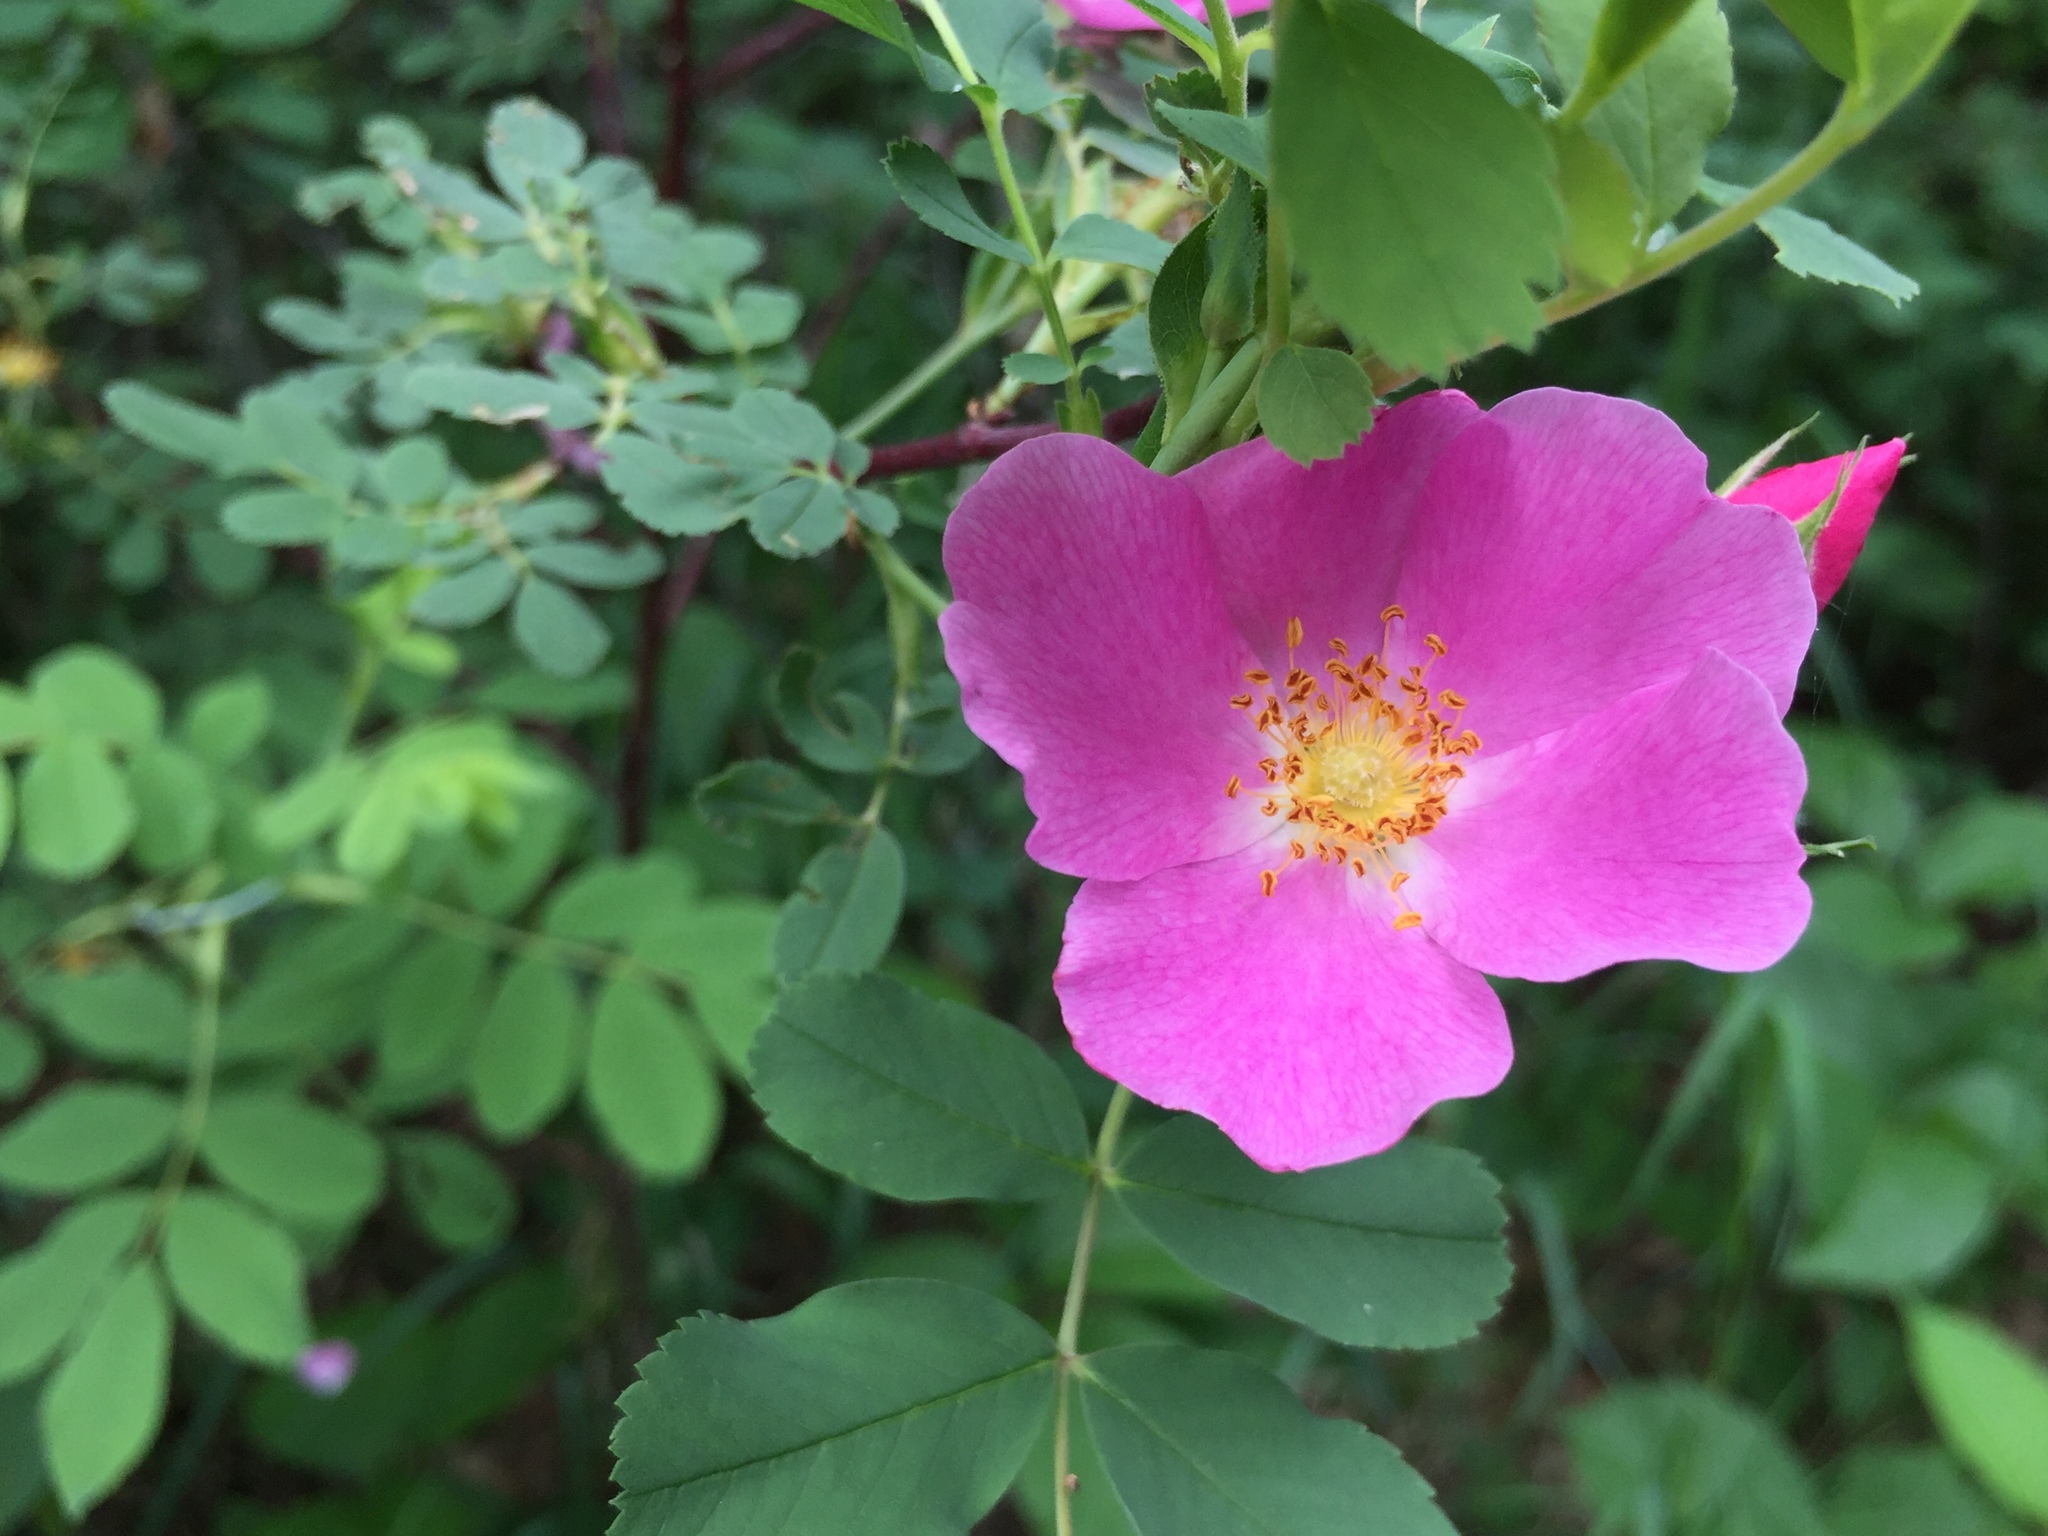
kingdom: Plantae
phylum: Tracheophyta
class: Magnoliopsida
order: Rosales
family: Rosaceae
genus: Rosa
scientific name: Rosa acicularis
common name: Prickly rose
